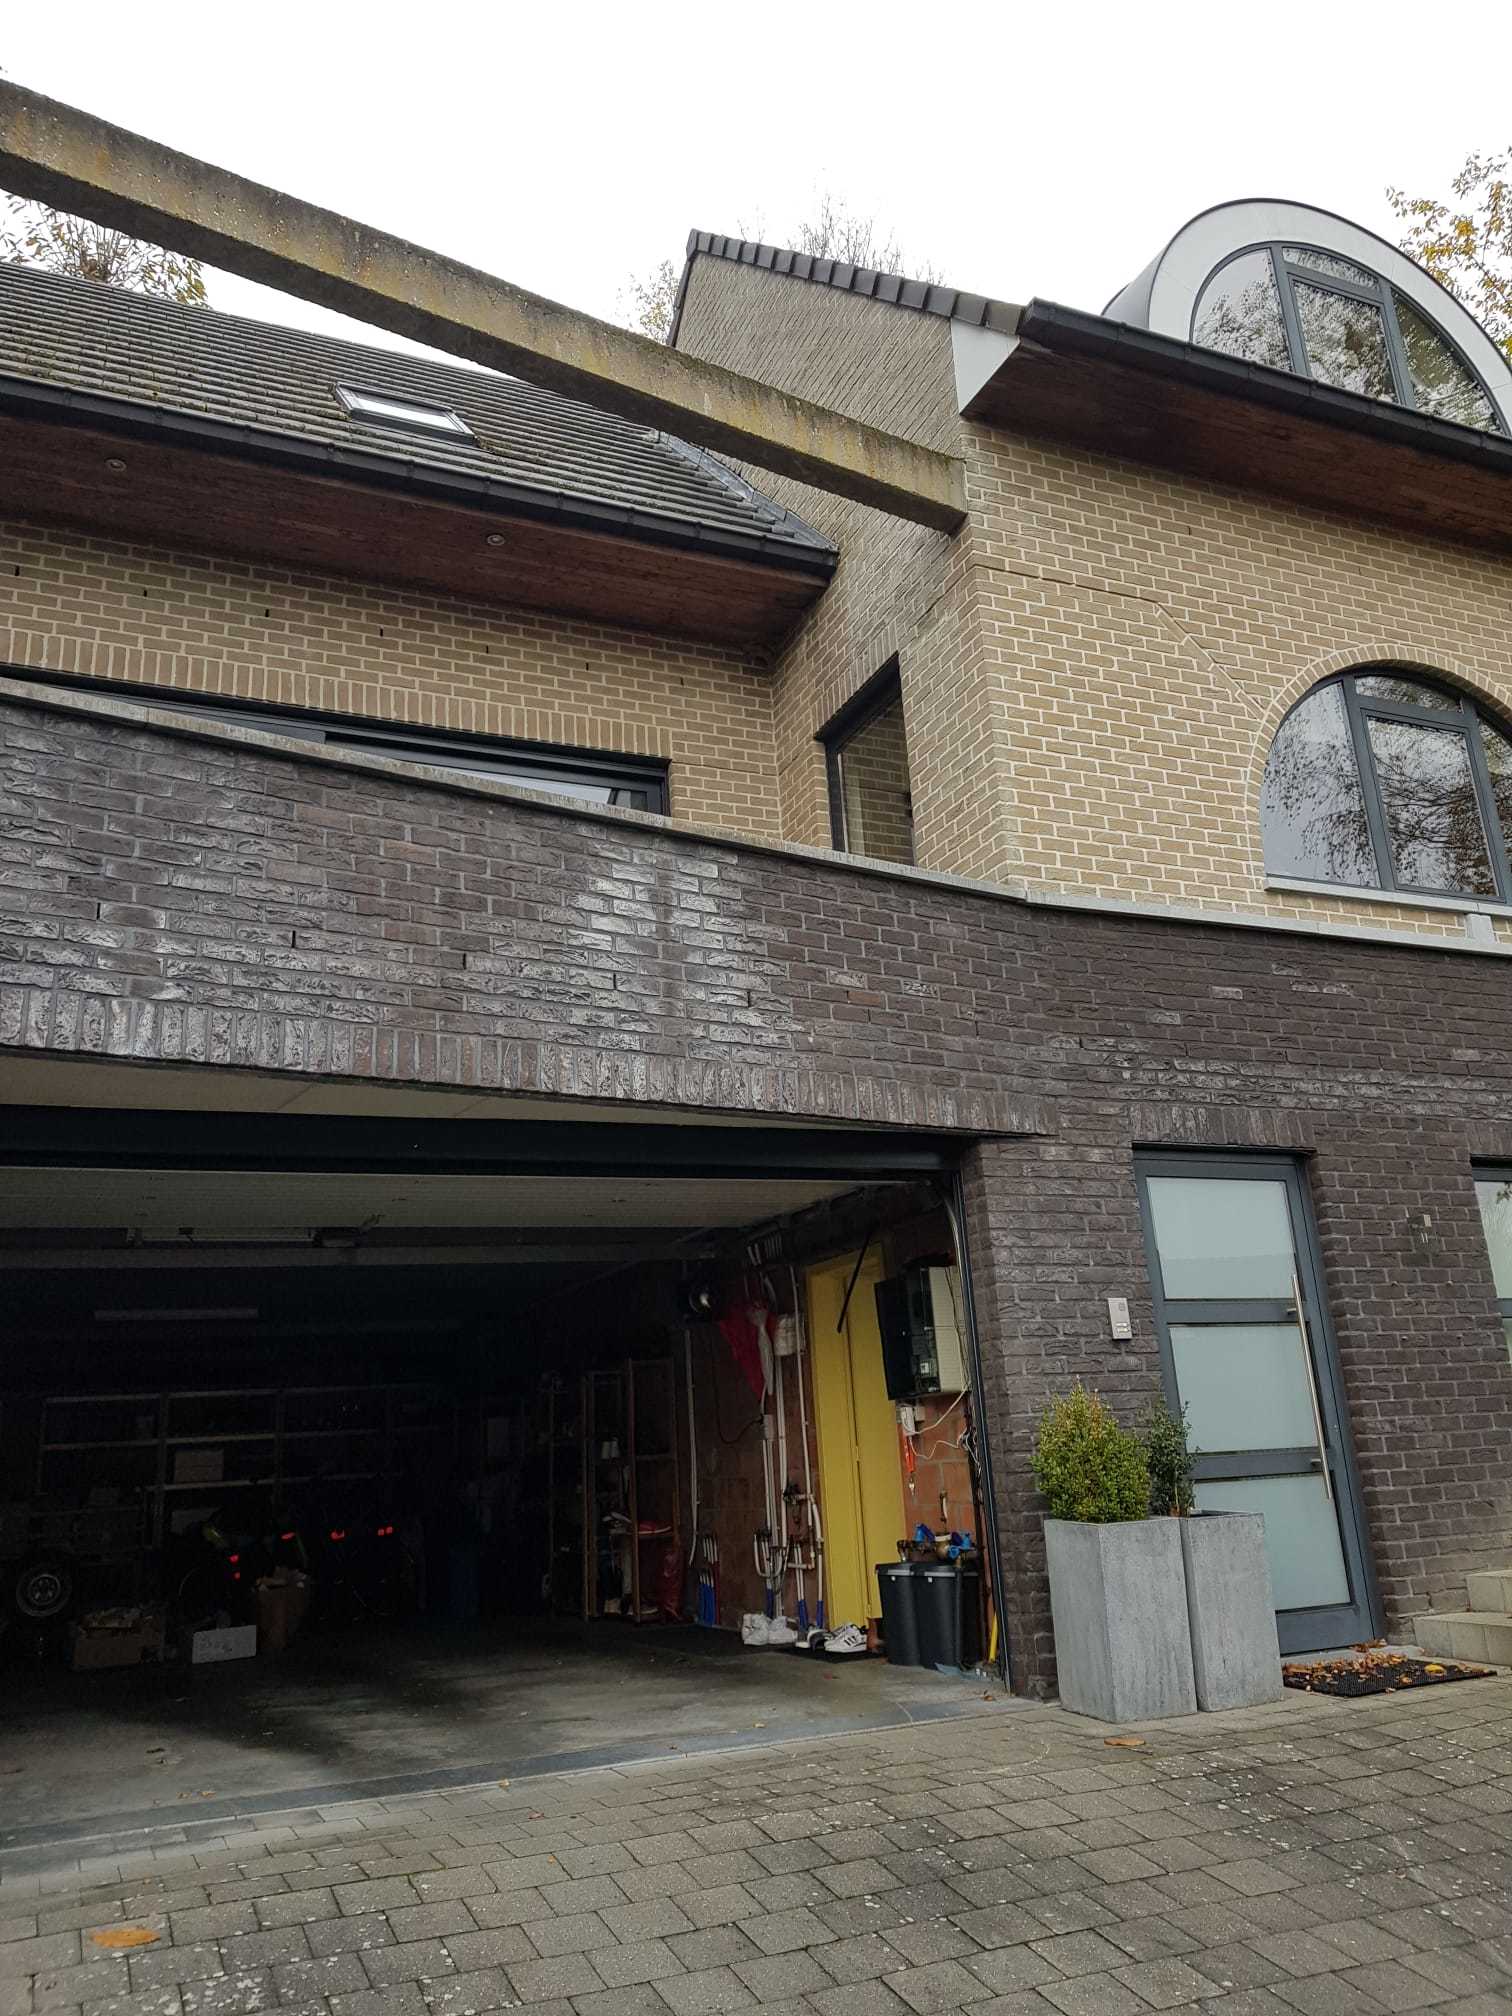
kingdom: Animalia
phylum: Arthropoda
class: Insecta
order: Hymenoptera
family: Vespidae
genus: Vespa
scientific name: Vespa velutina
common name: Asian hornet
